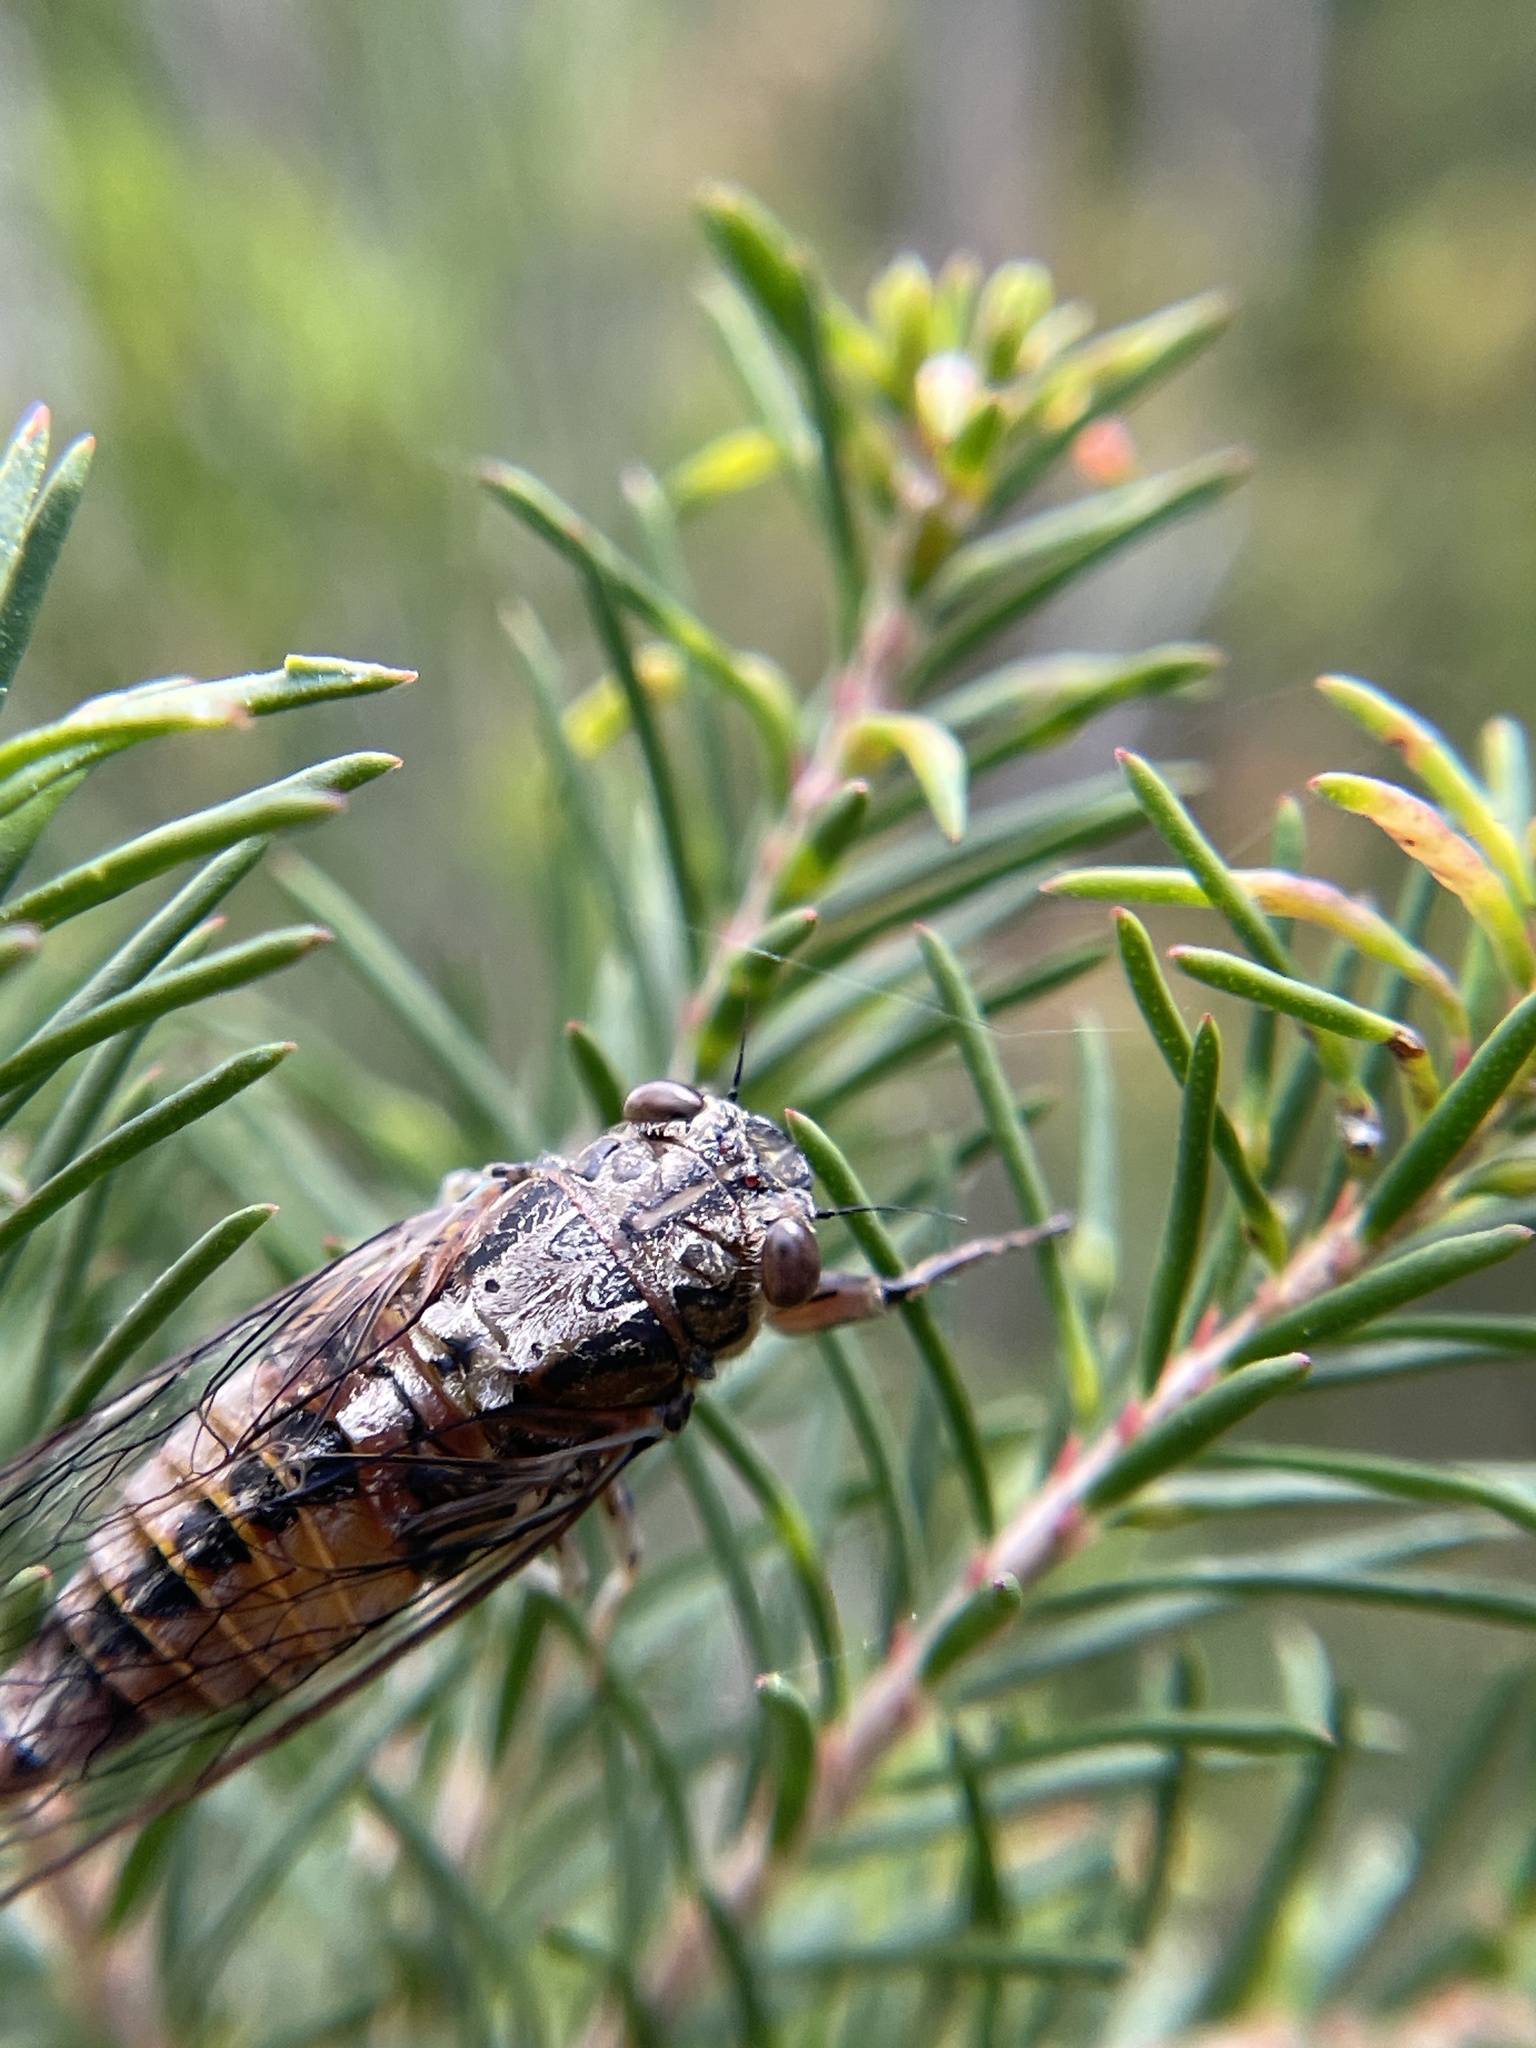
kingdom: Animalia
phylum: Arthropoda
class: Insecta
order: Hemiptera
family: Cicadidae
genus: Yoyetta
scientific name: Yoyetta celis
